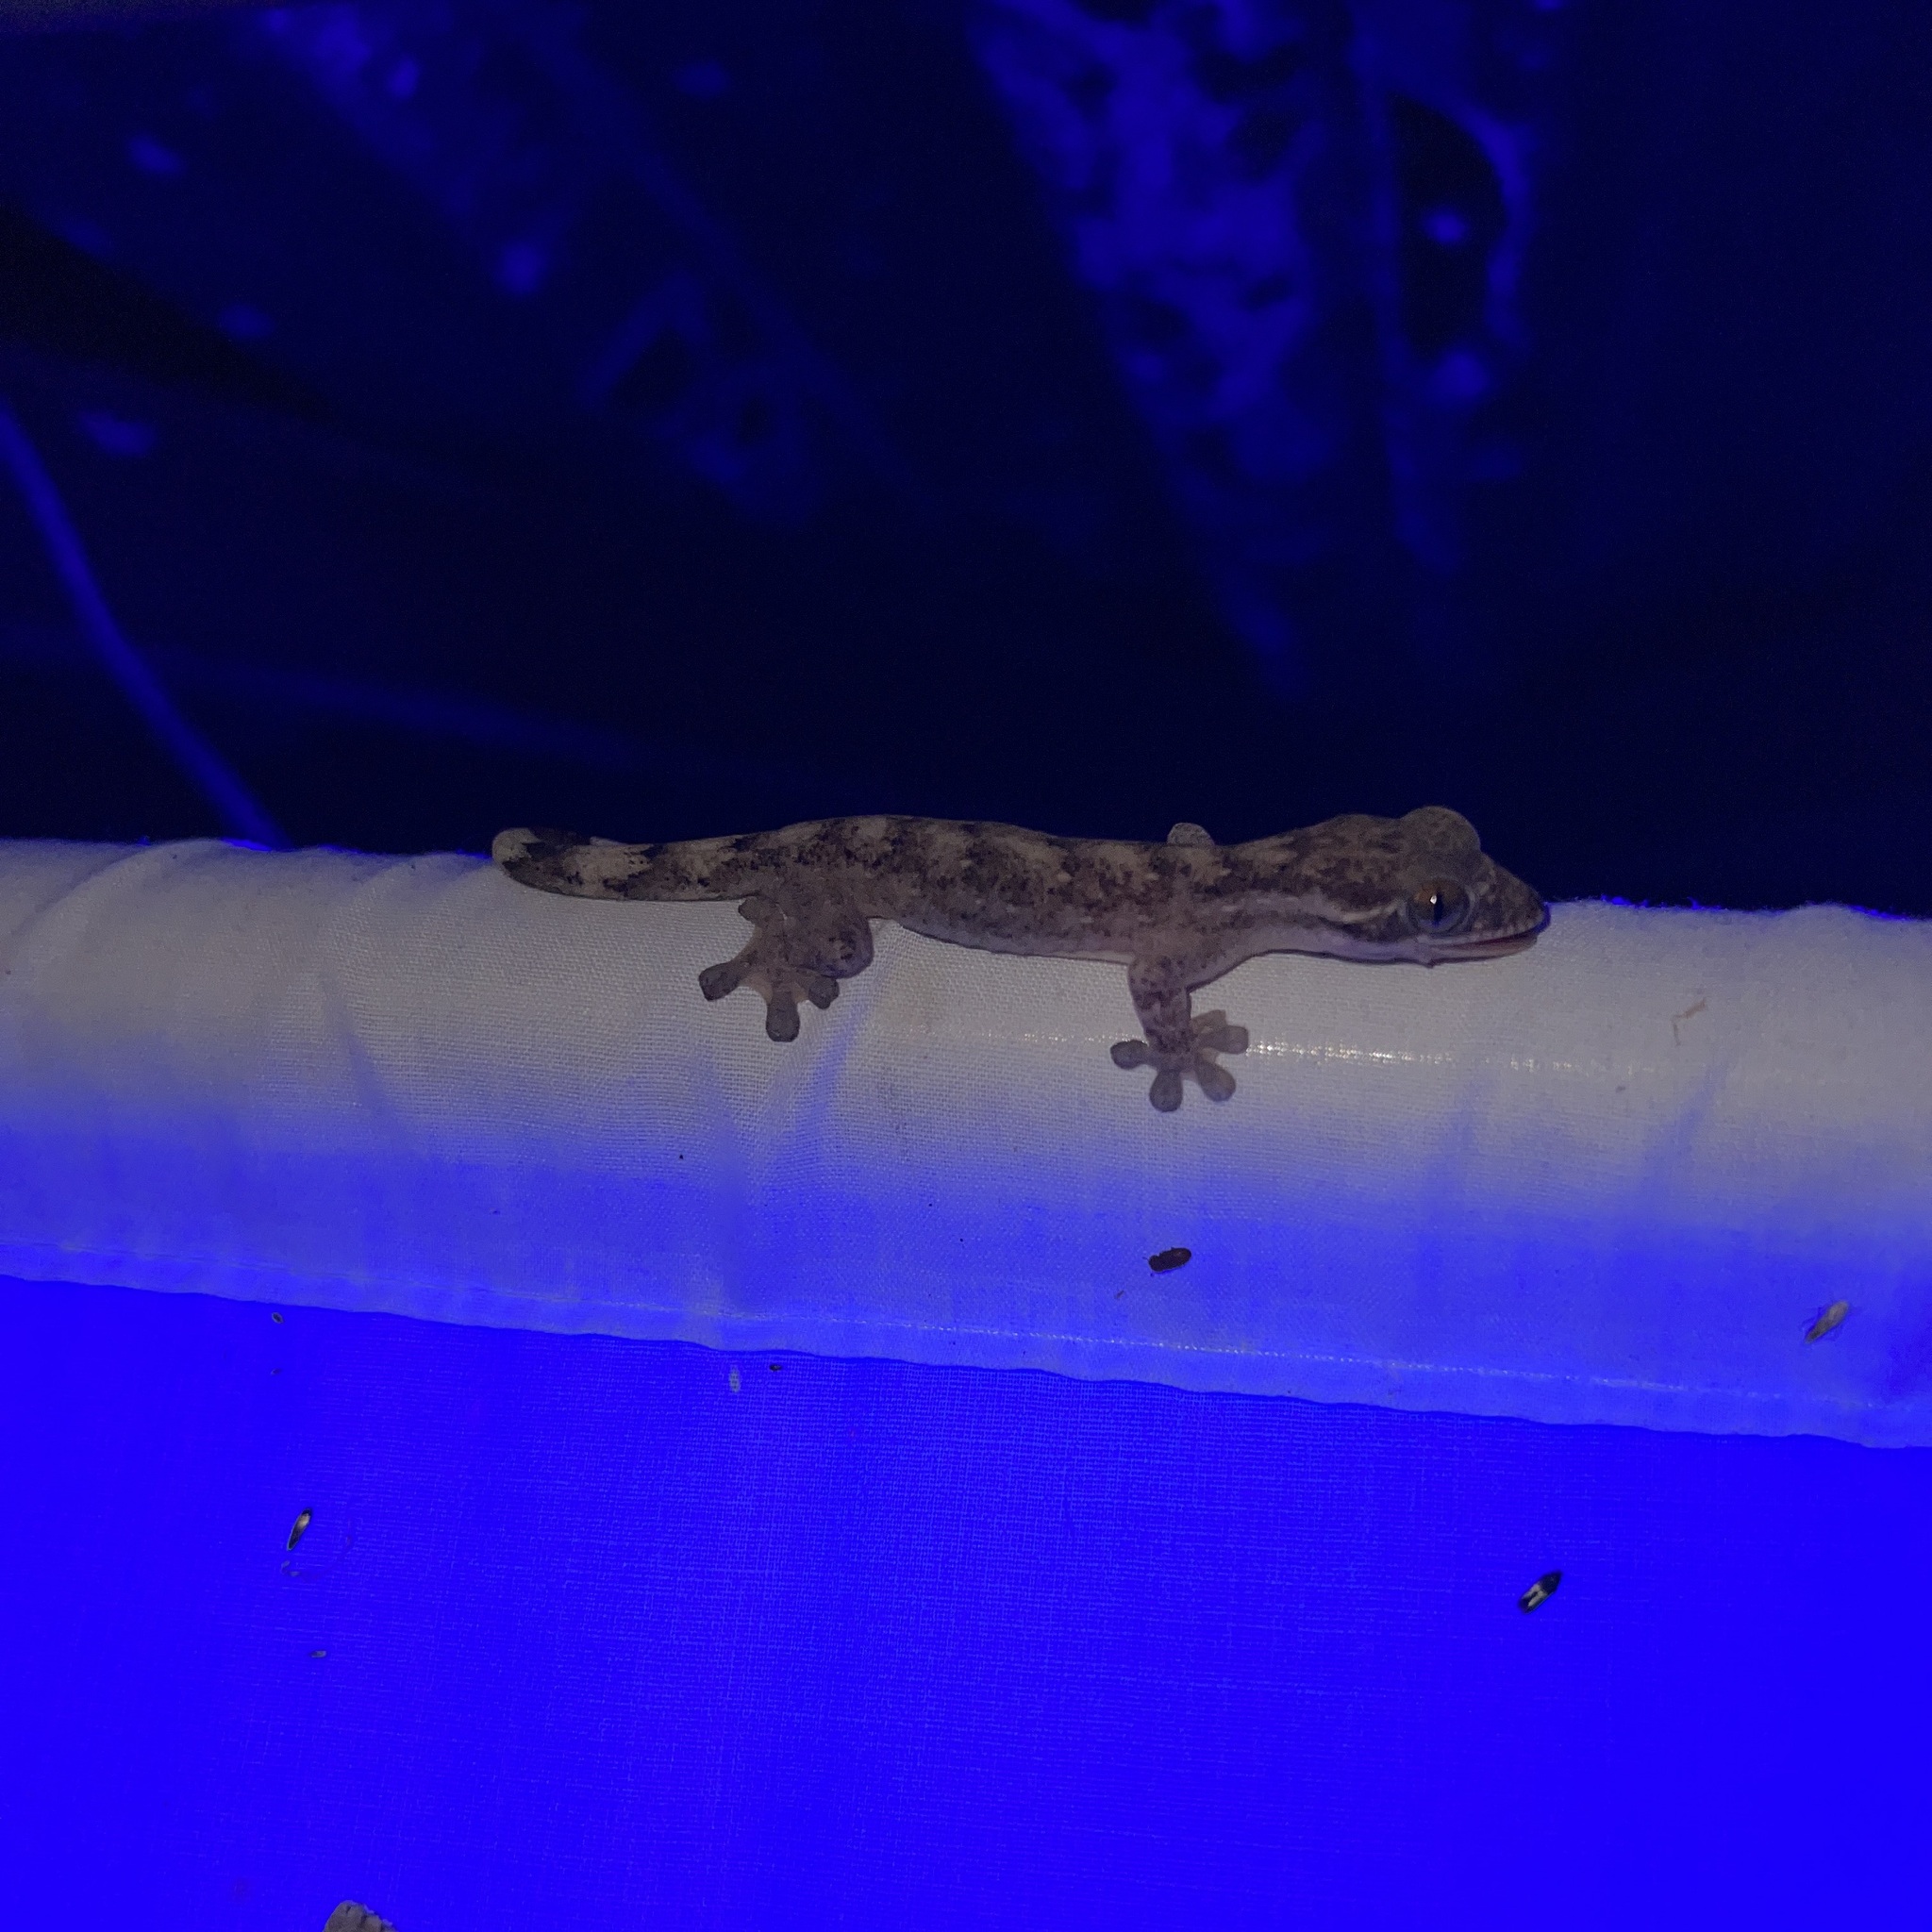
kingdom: Animalia
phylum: Chordata
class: Squamata
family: Phyllodactylidae
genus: Thecadactylus
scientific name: Thecadactylus rapicauda
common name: Turnip-tailed gecko
